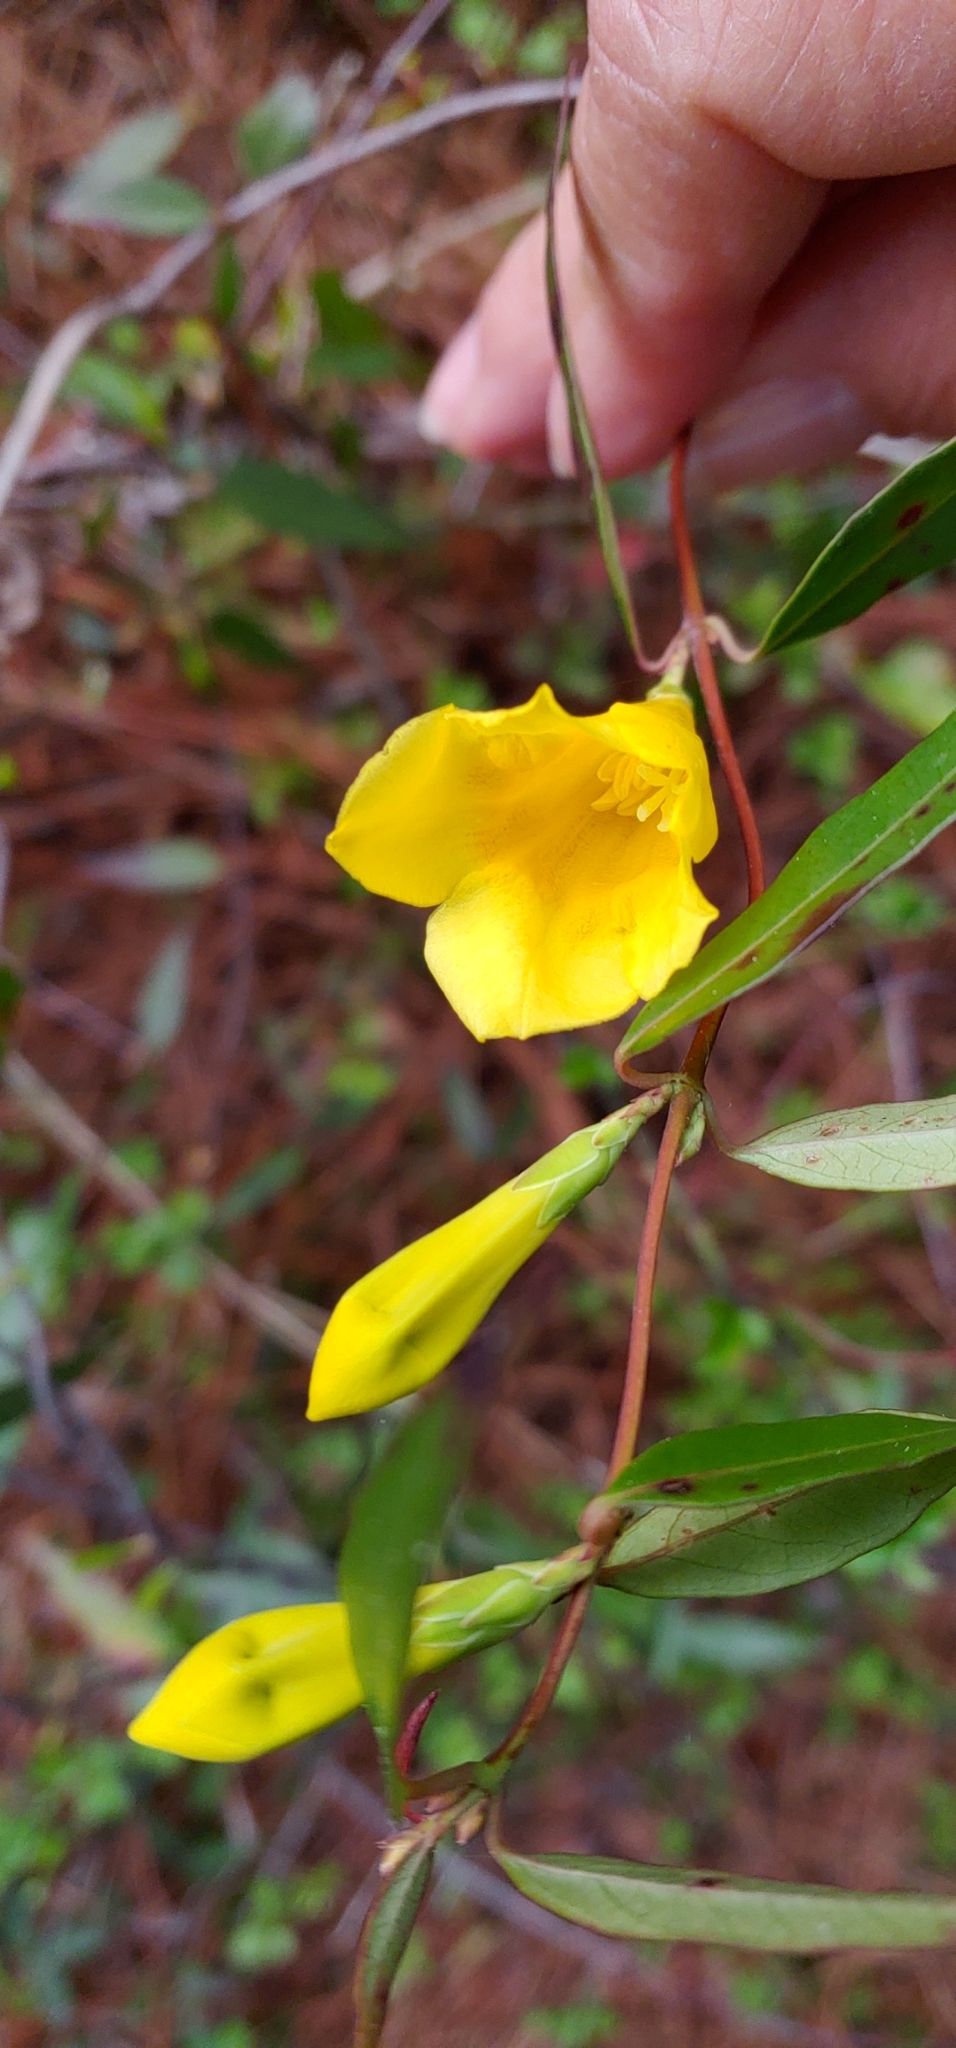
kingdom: Plantae
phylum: Tracheophyta
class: Magnoliopsida
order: Gentianales
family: Gelsemiaceae
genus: Gelsemium
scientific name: Gelsemium sempervirens
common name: Carolina-jasmine
